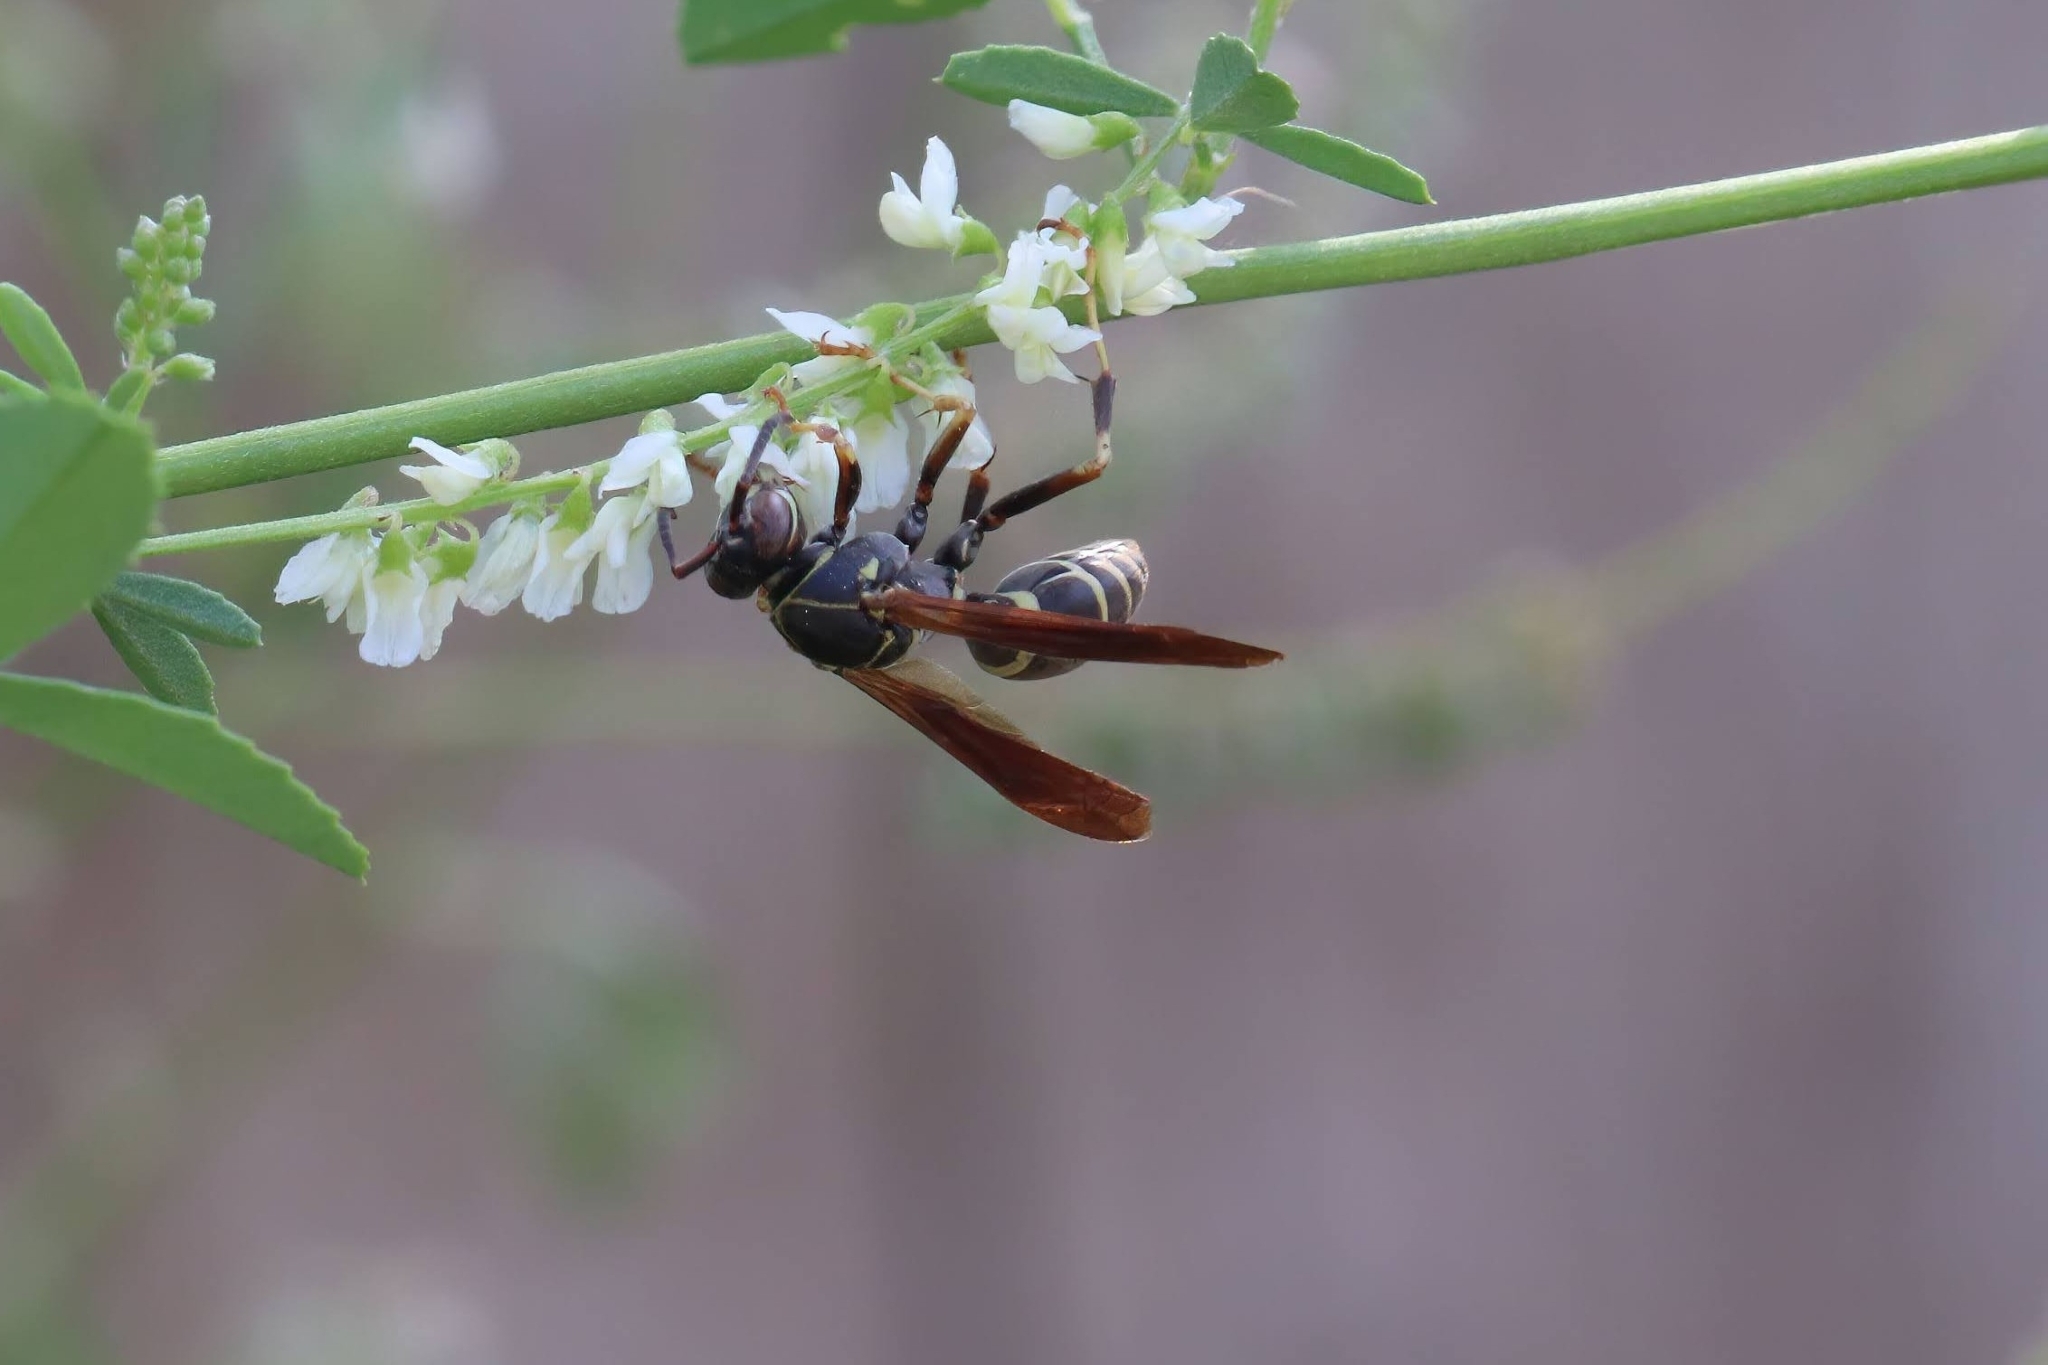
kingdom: Animalia
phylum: Arthropoda
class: Insecta
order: Hymenoptera
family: Eumenidae
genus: Polistes
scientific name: Polistes fuscatus
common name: Dark paper wasp
